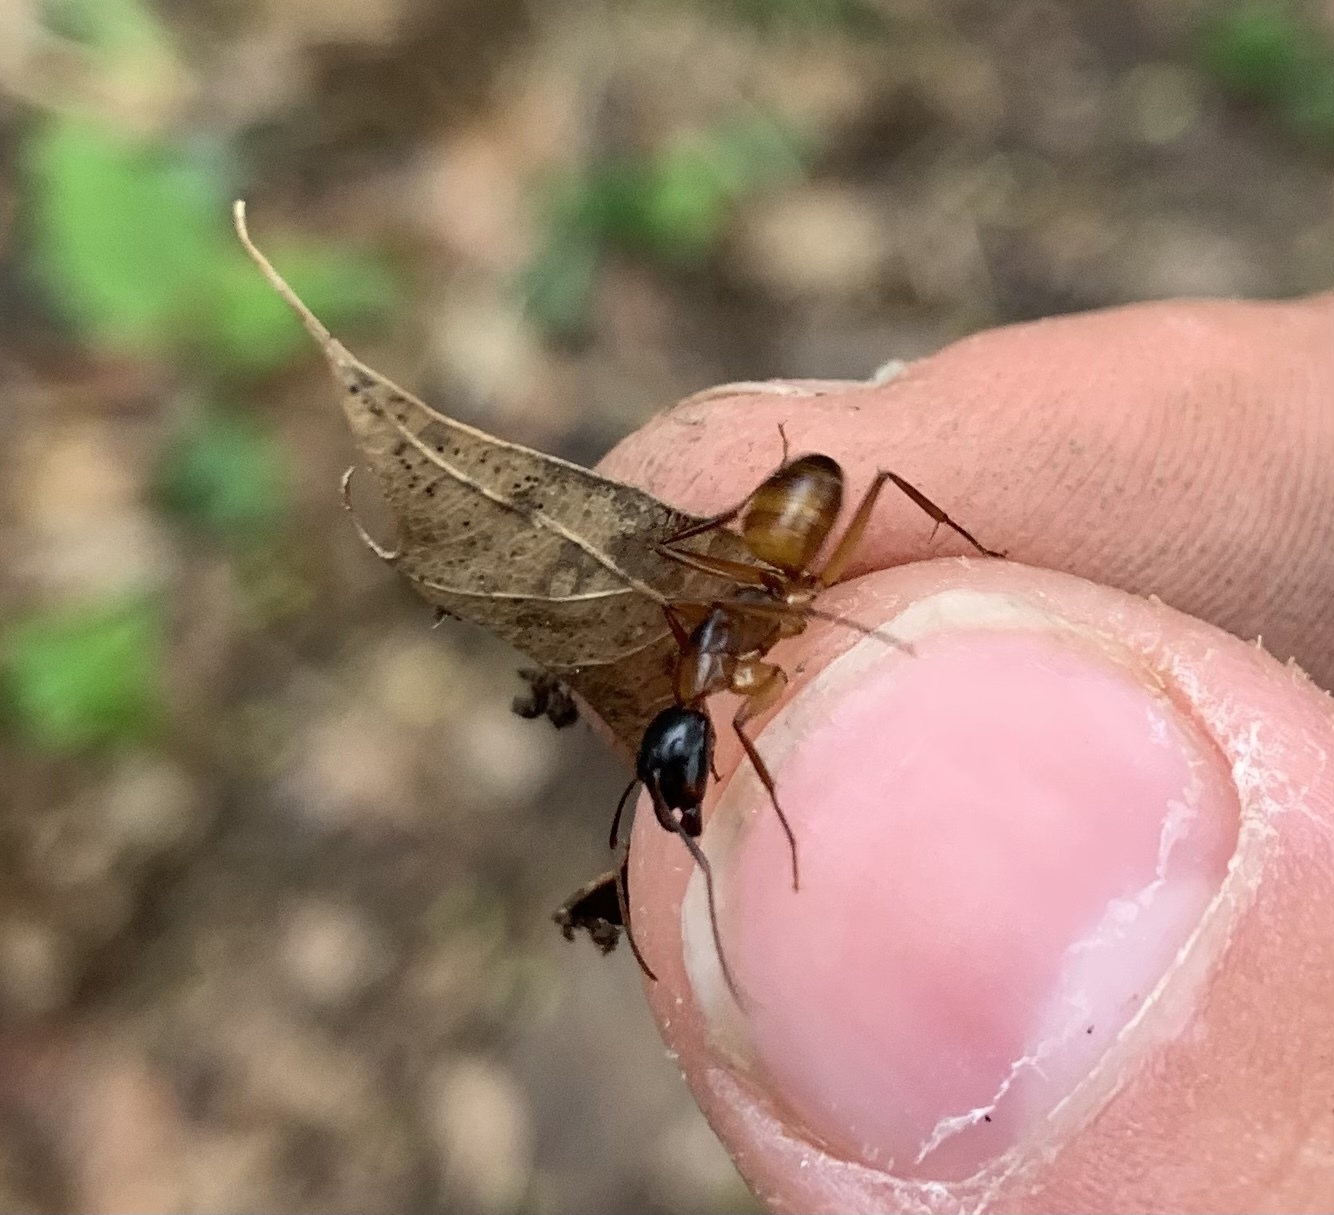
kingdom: Animalia
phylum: Arthropoda
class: Insecta
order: Hymenoptera
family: Formicidae
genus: Camponotus
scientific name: Camponotus americanus
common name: American carpenter ant
